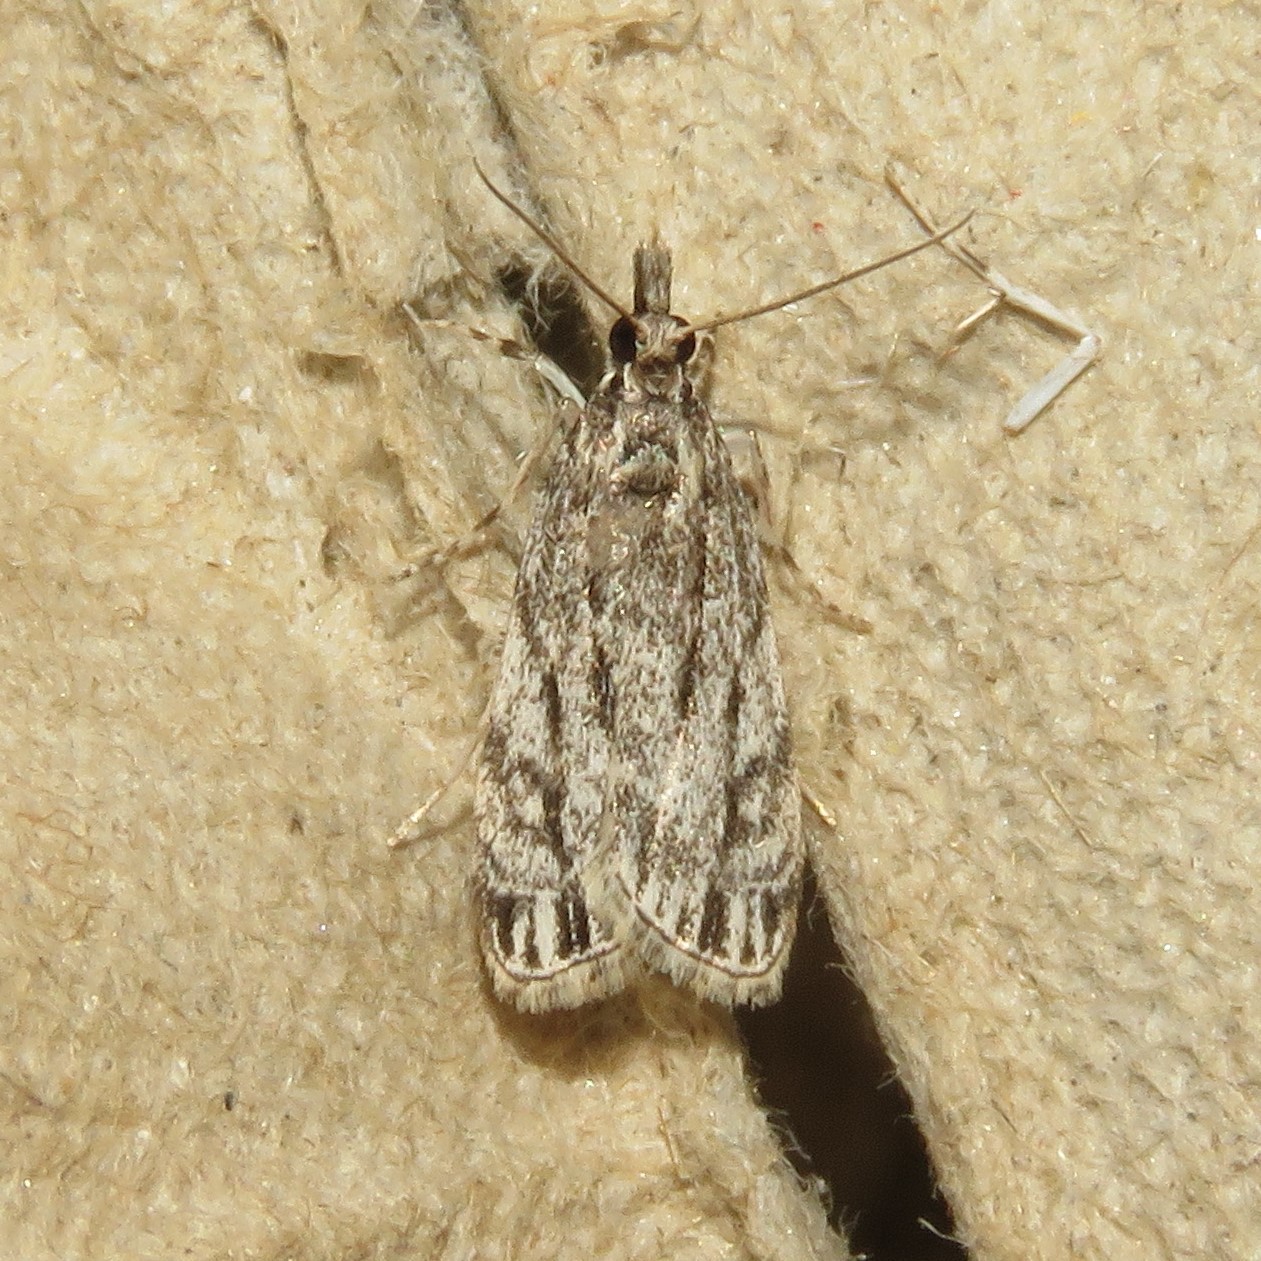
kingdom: Animalia
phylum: Arthropoda
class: Insecta
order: Lepidoptera
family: Crambidae
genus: Eudonia
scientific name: Eudonia strigalis
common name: Striped eudonia moth
